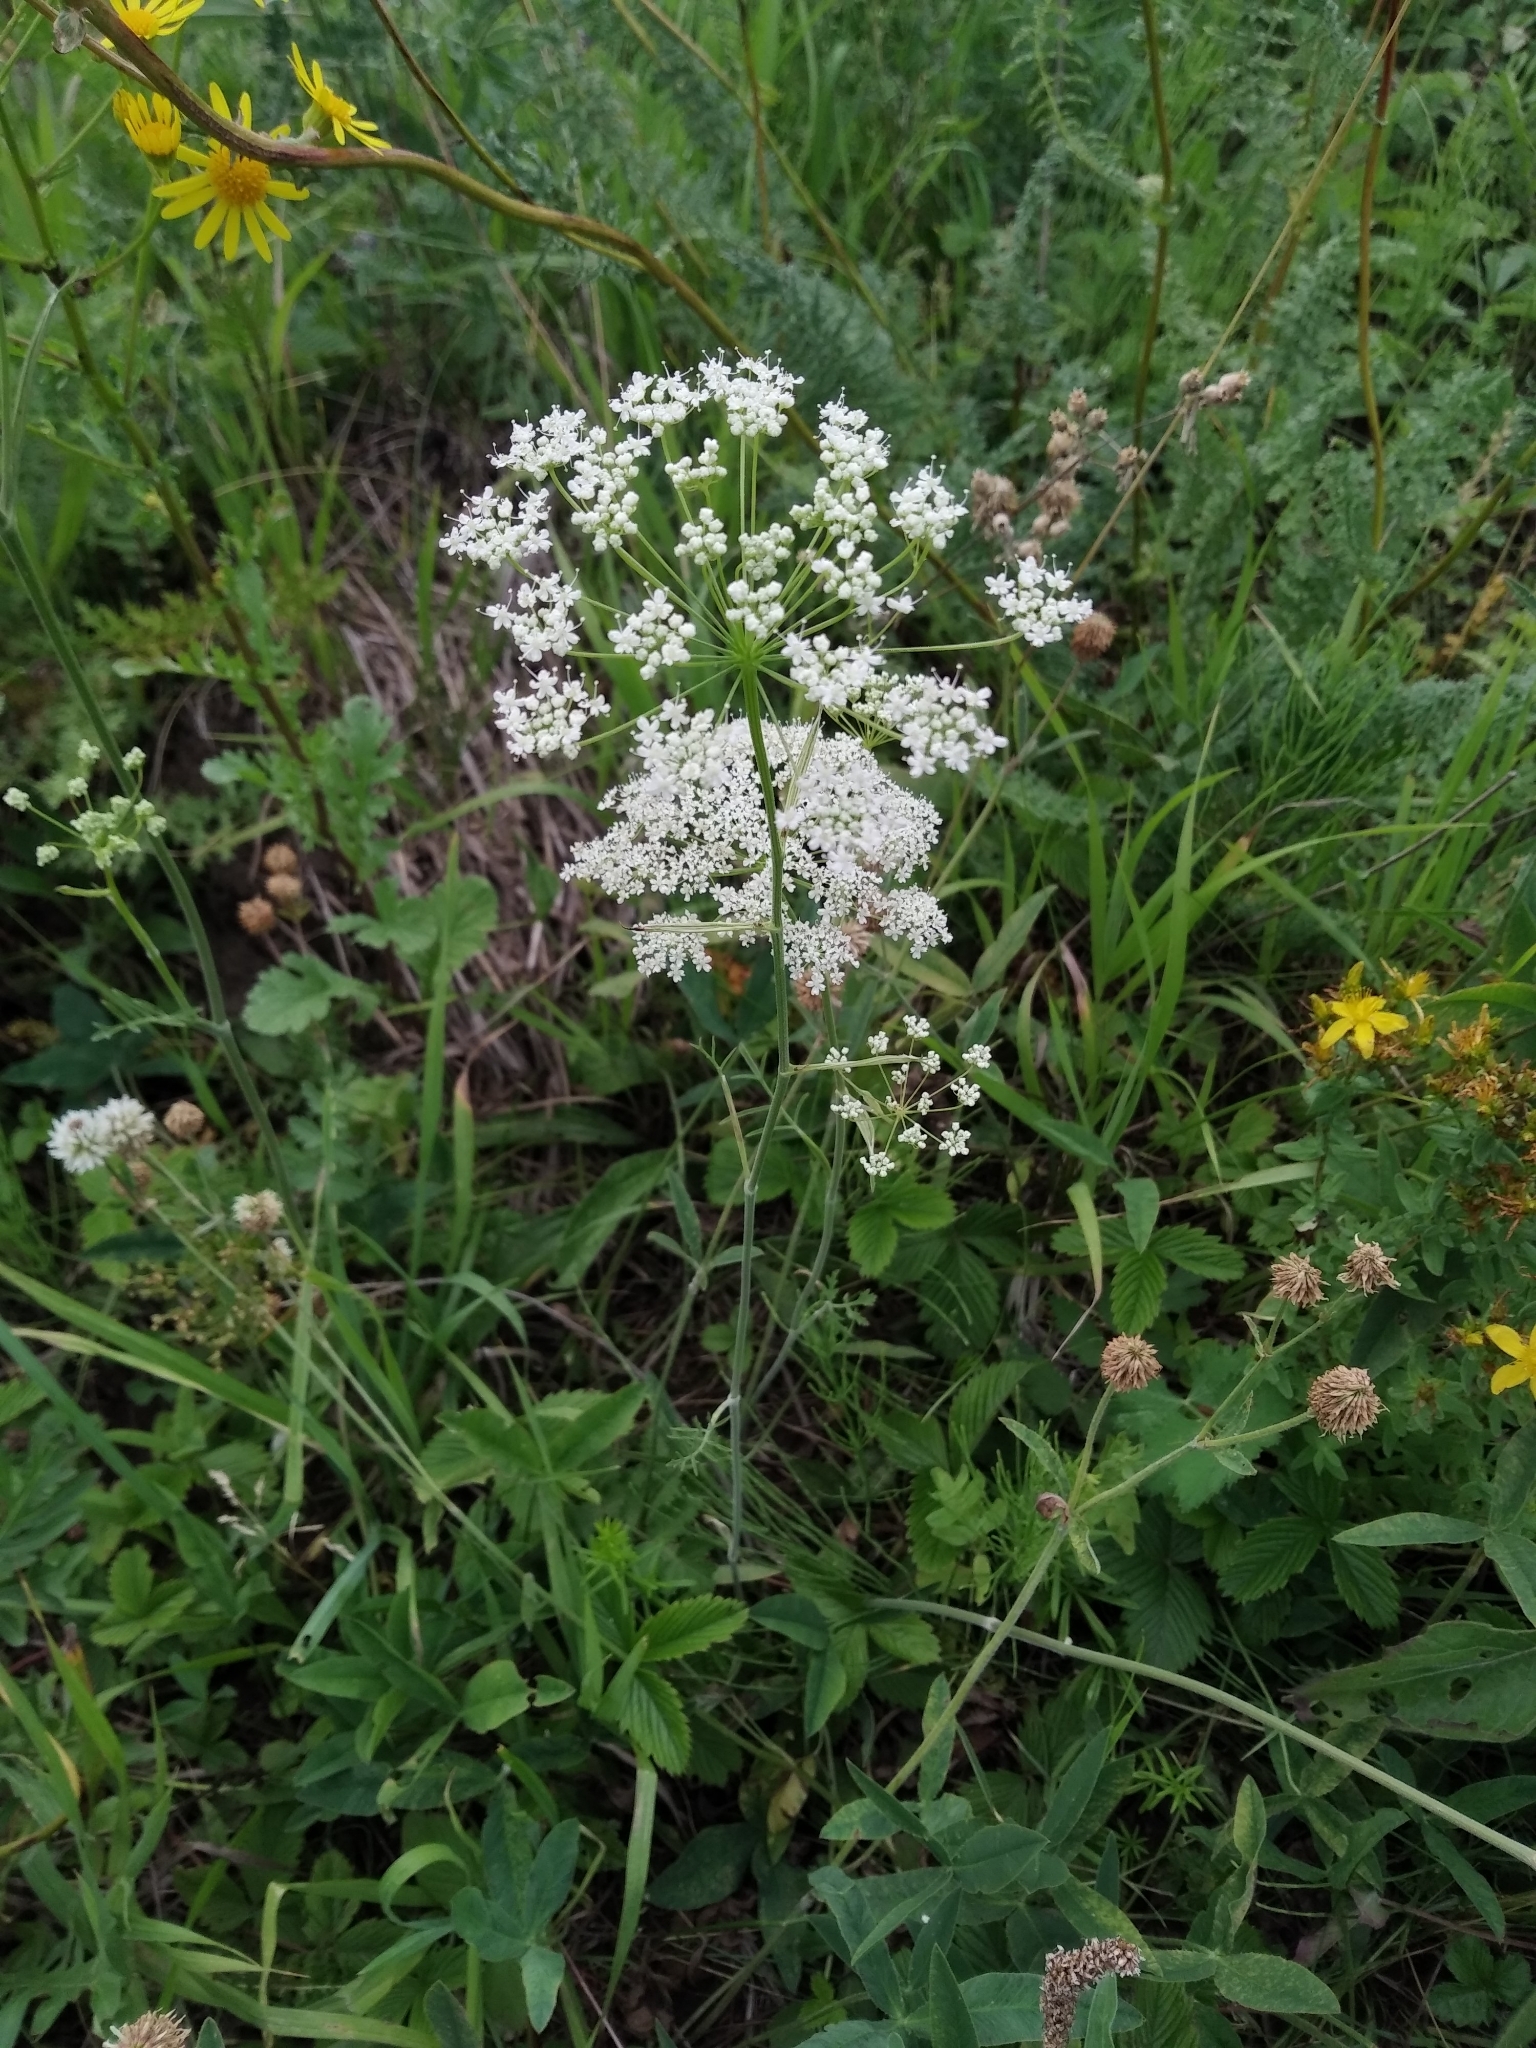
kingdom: Plantae
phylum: Tracheophyta
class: Magnoliopsida
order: Apiales
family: Apiaceae
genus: Pimpinella
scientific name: Pimpinella saxifraga
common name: Burnet-saxifrage
